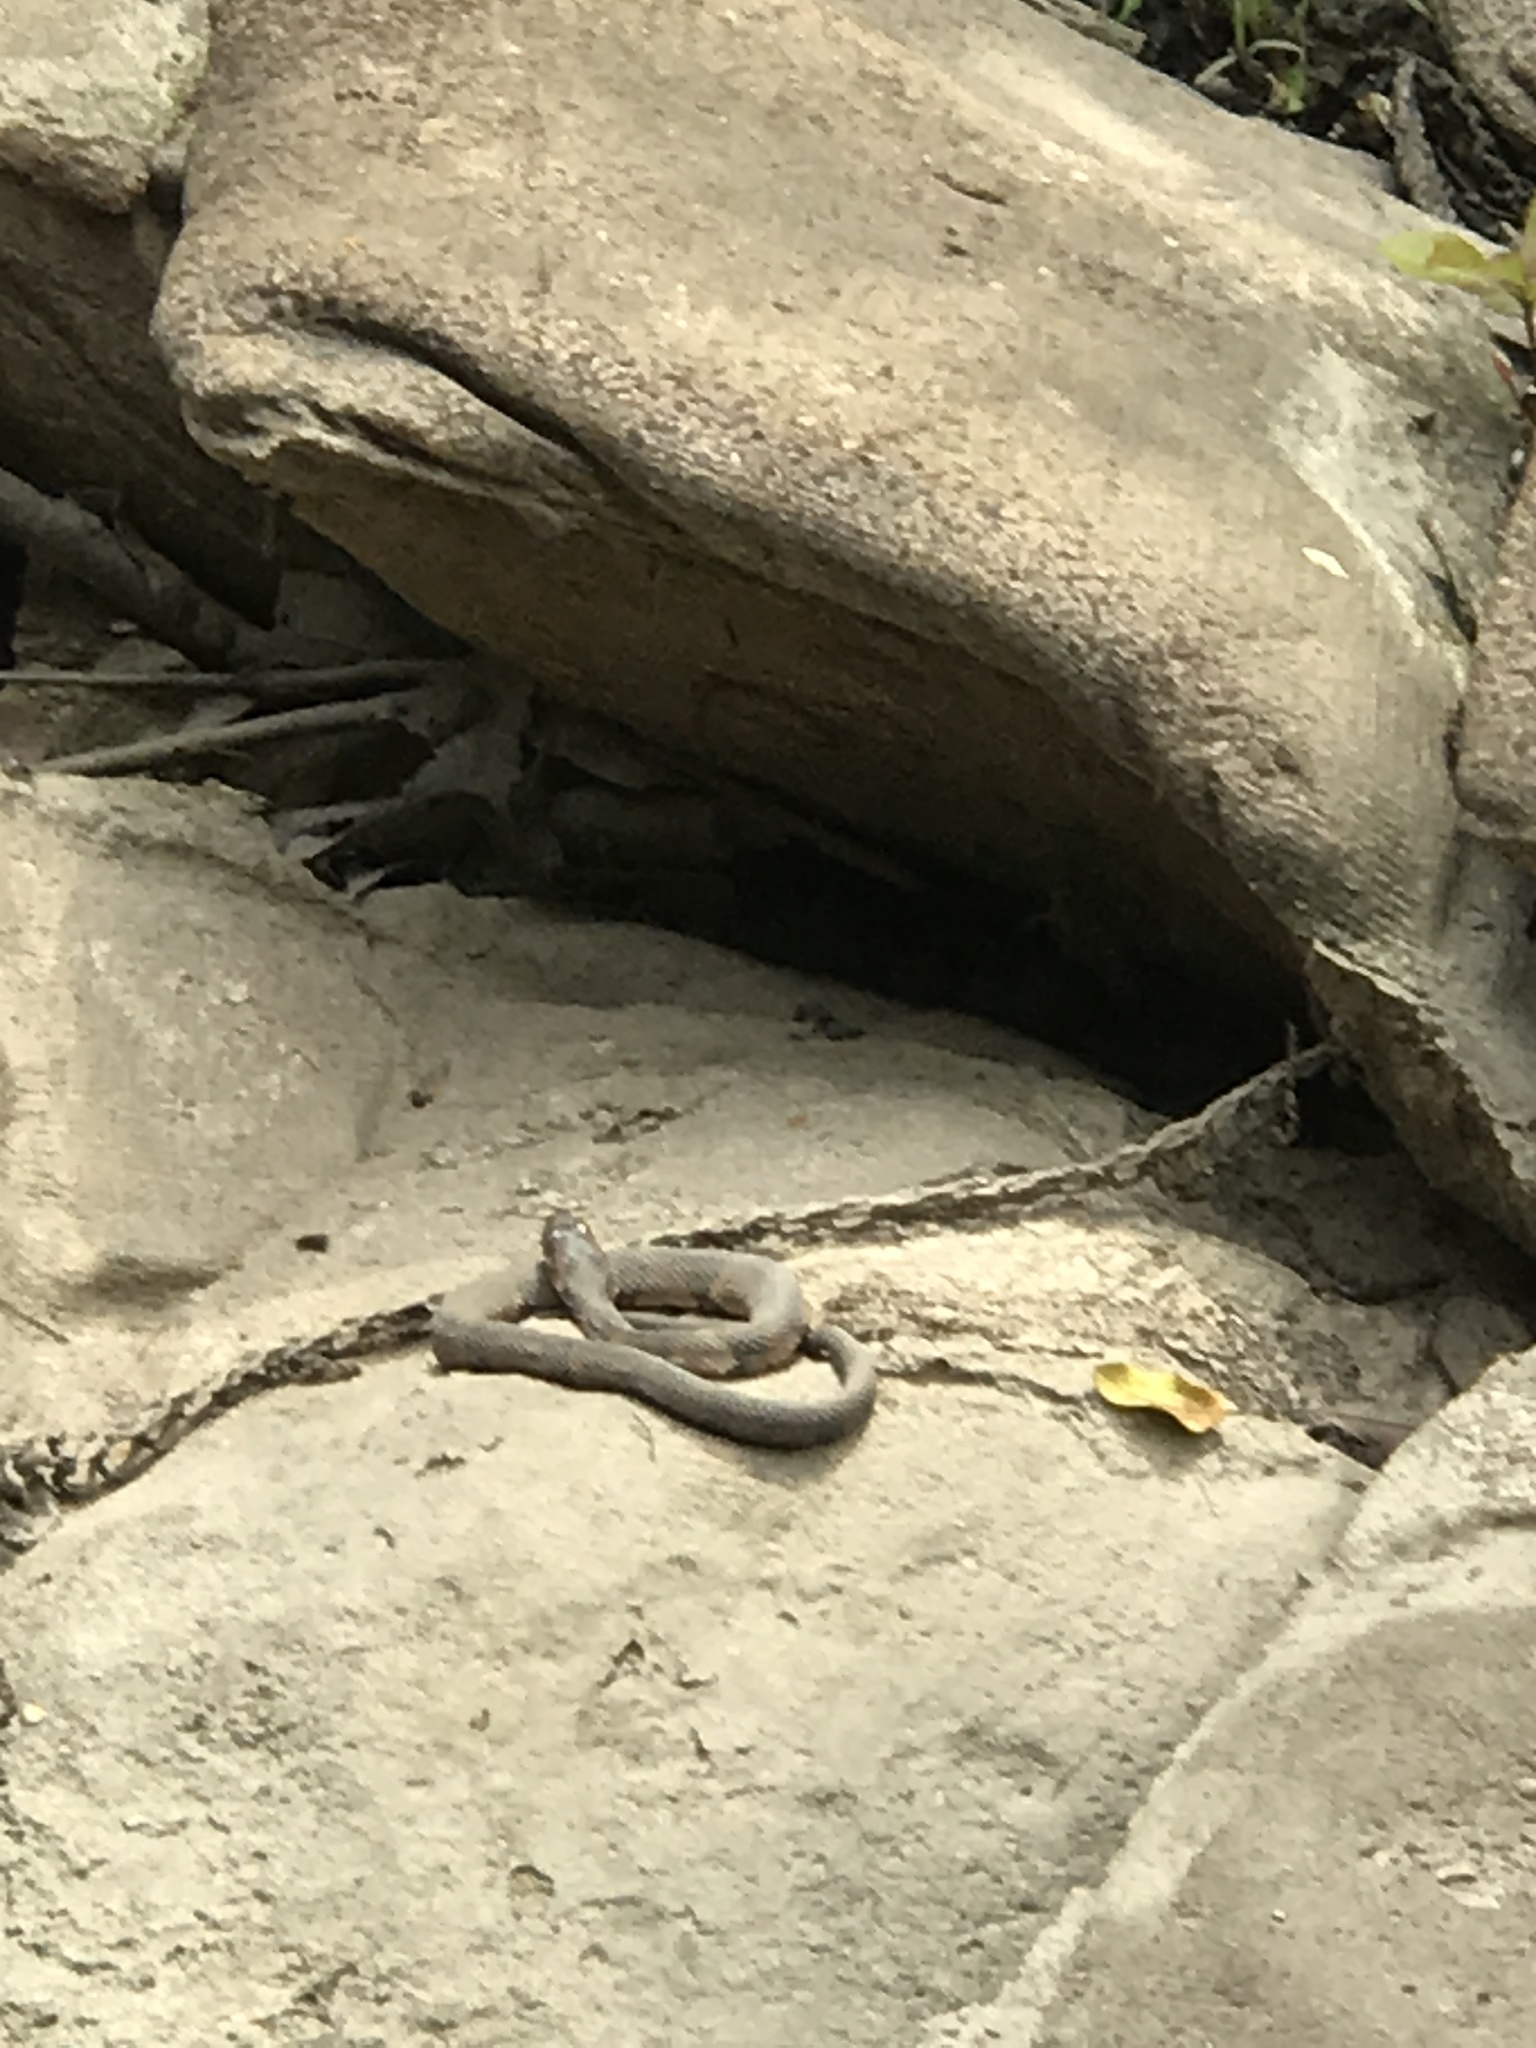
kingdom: Animalia
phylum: Chordata
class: Squamata
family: Colubridae
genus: Nerodia
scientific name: Nerodia fasciata
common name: Southern water snake
